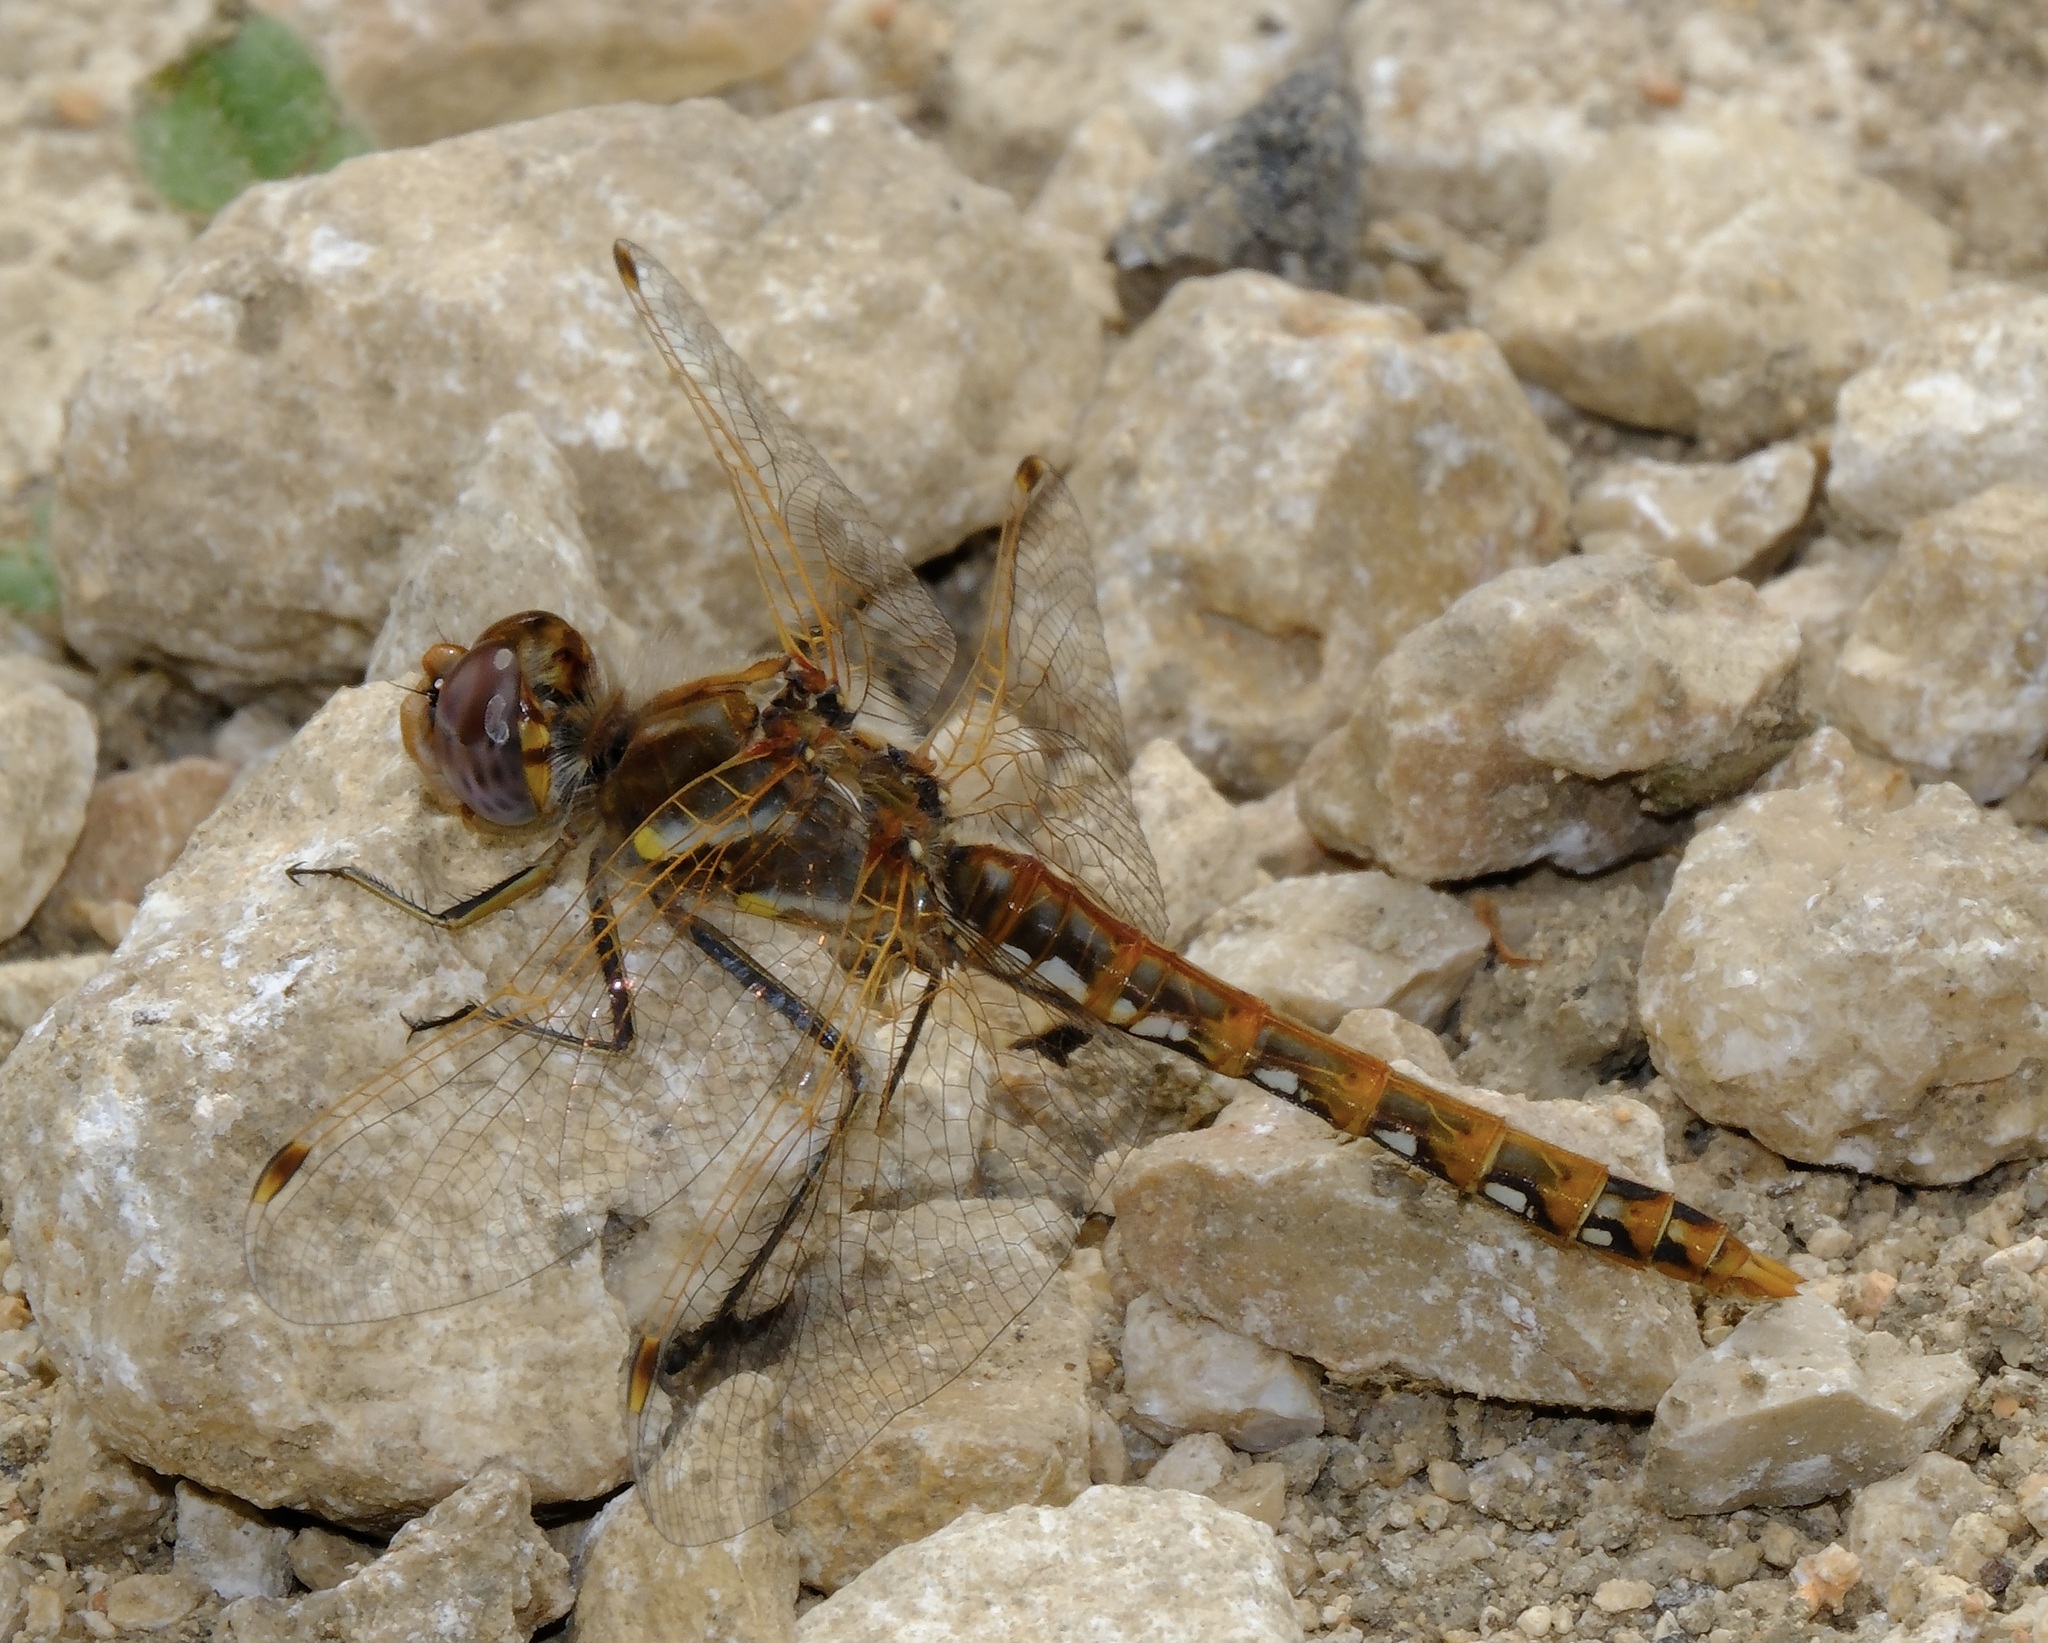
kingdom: Animalia
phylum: Arthropoda
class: Insecta
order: Odonata
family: Libellulidae
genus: Sympetrum
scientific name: Sympetrum corruptum
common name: Variegated meadowhawk
